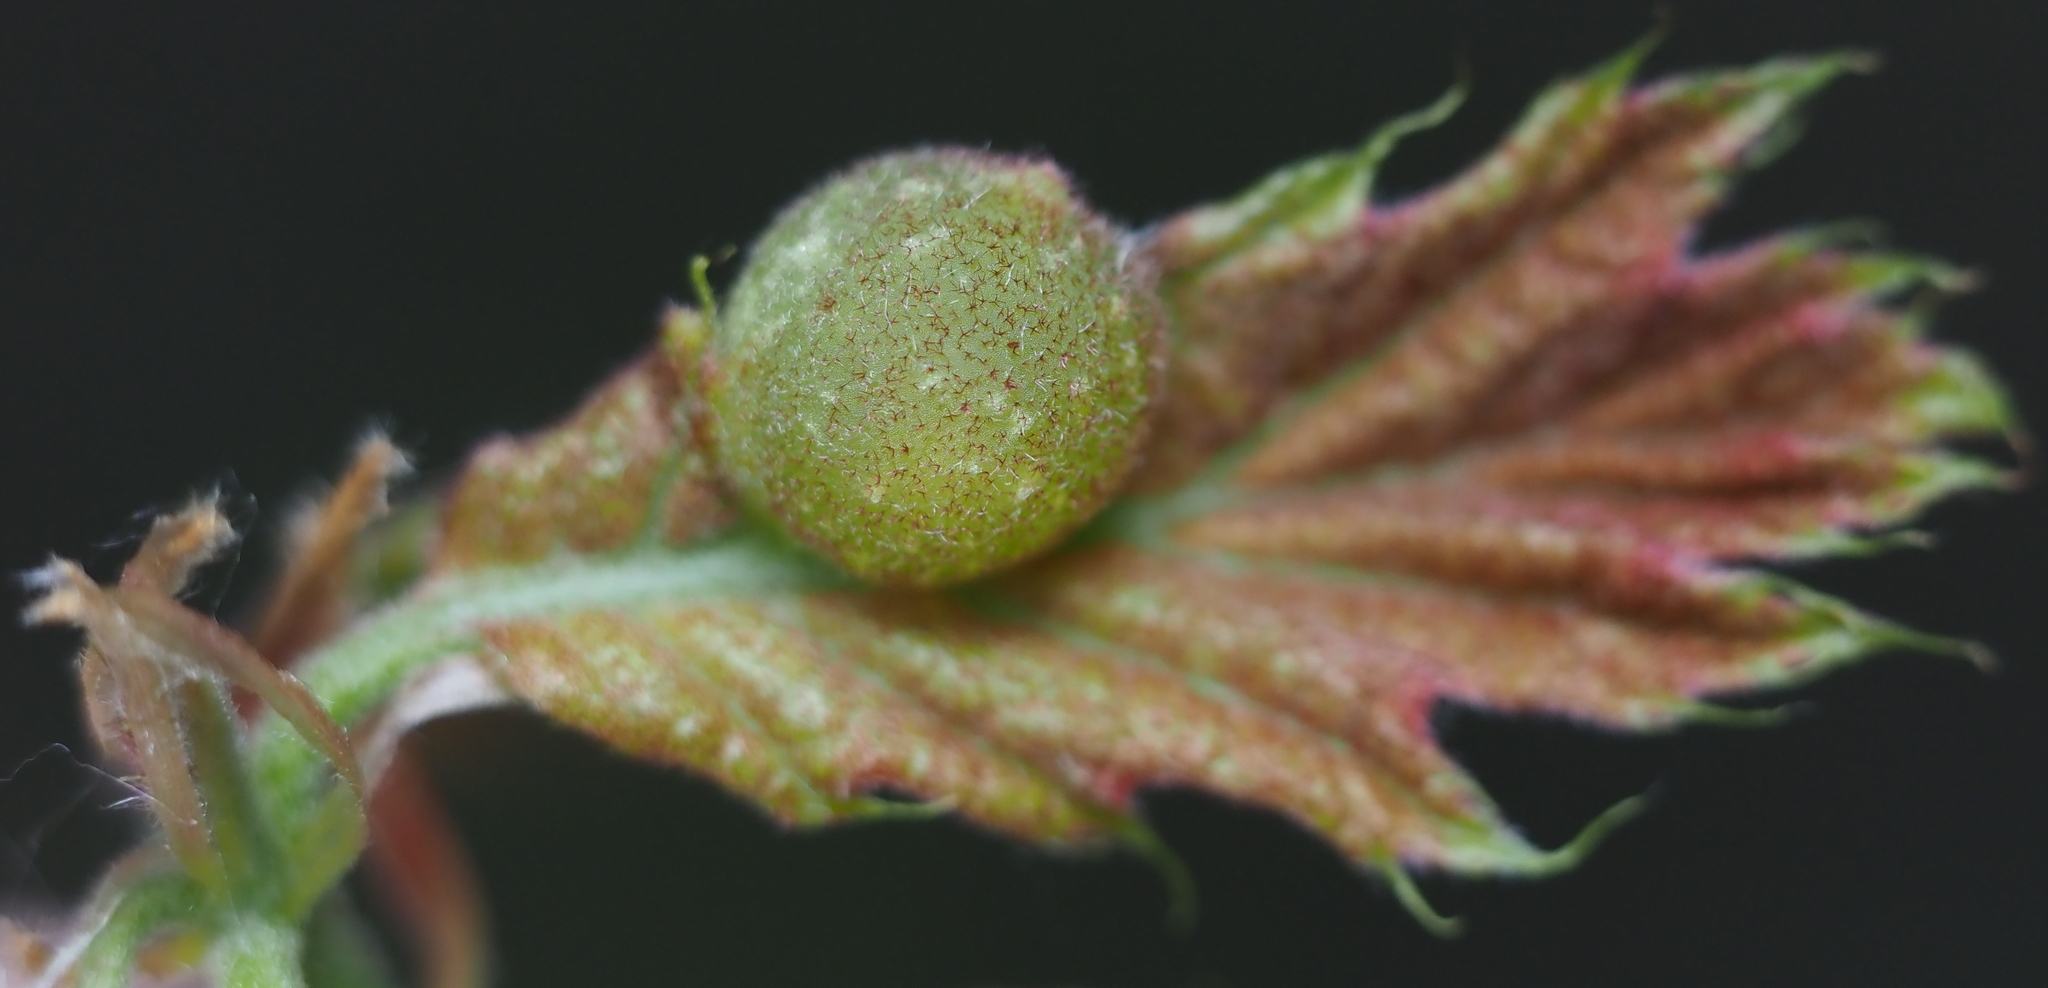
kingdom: Animalia
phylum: Arthropoda
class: Insecta
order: Hymenoptera
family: Cynipidae
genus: Dryocosmus
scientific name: Dryocosmus quercuspalustris
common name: Succulent oak gall wasp
